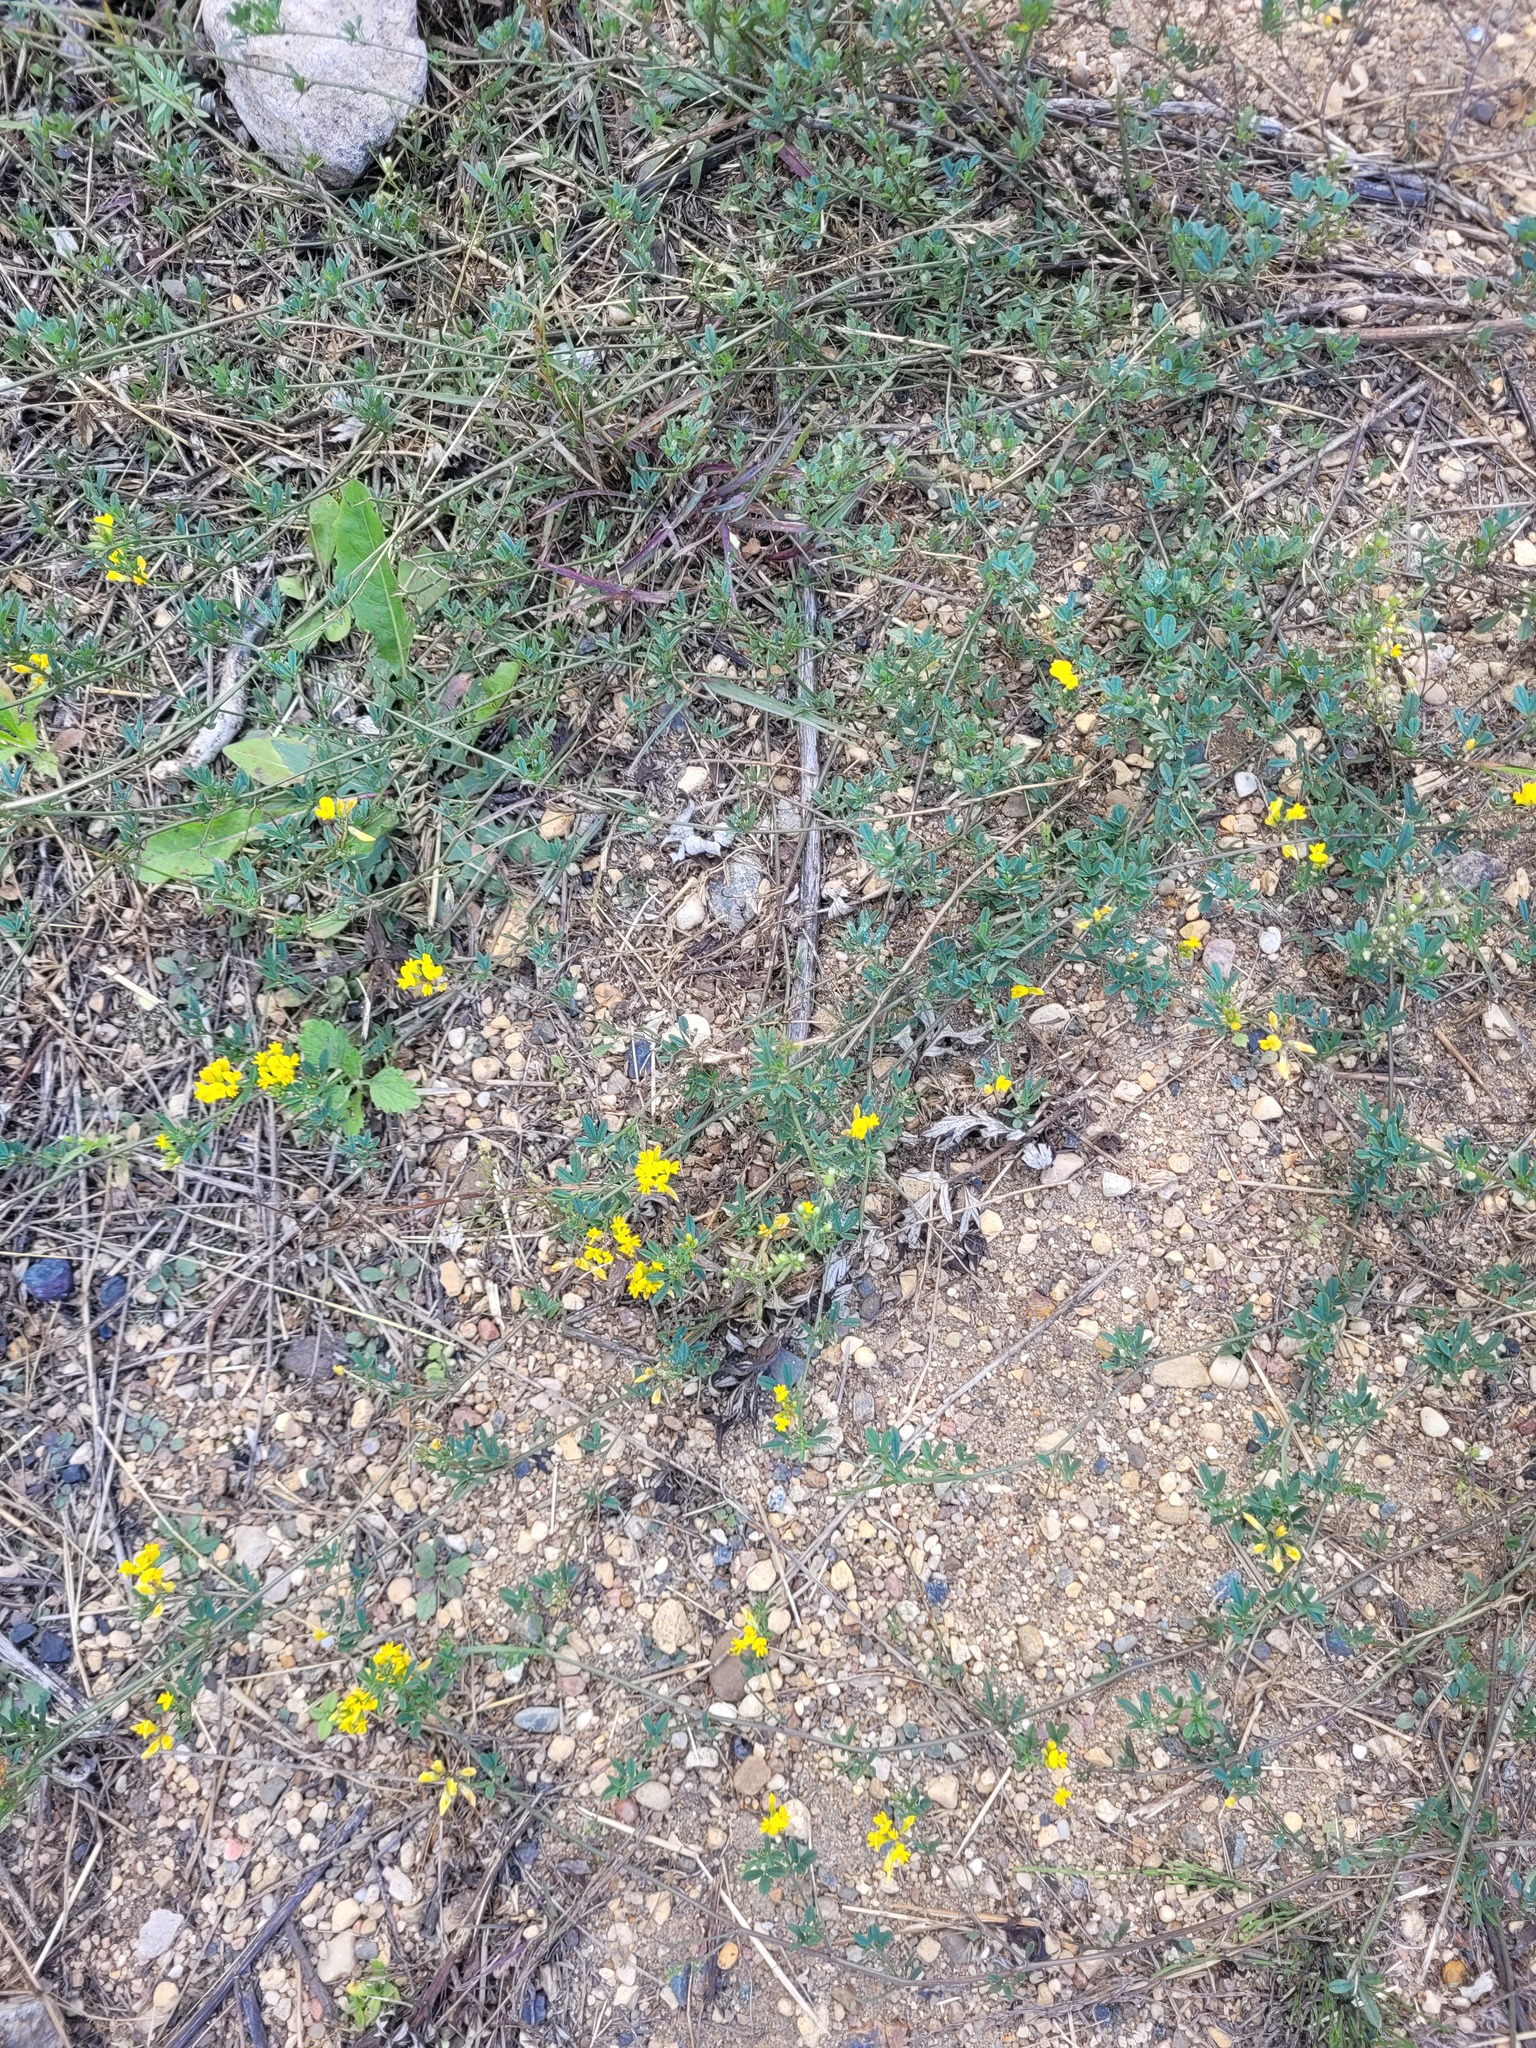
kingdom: Plantae
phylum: Tracheophyta
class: Magnoliopsida
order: Fabales
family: Fabaceae
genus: Medicago
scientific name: Medicago falcata
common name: Sickle medick
